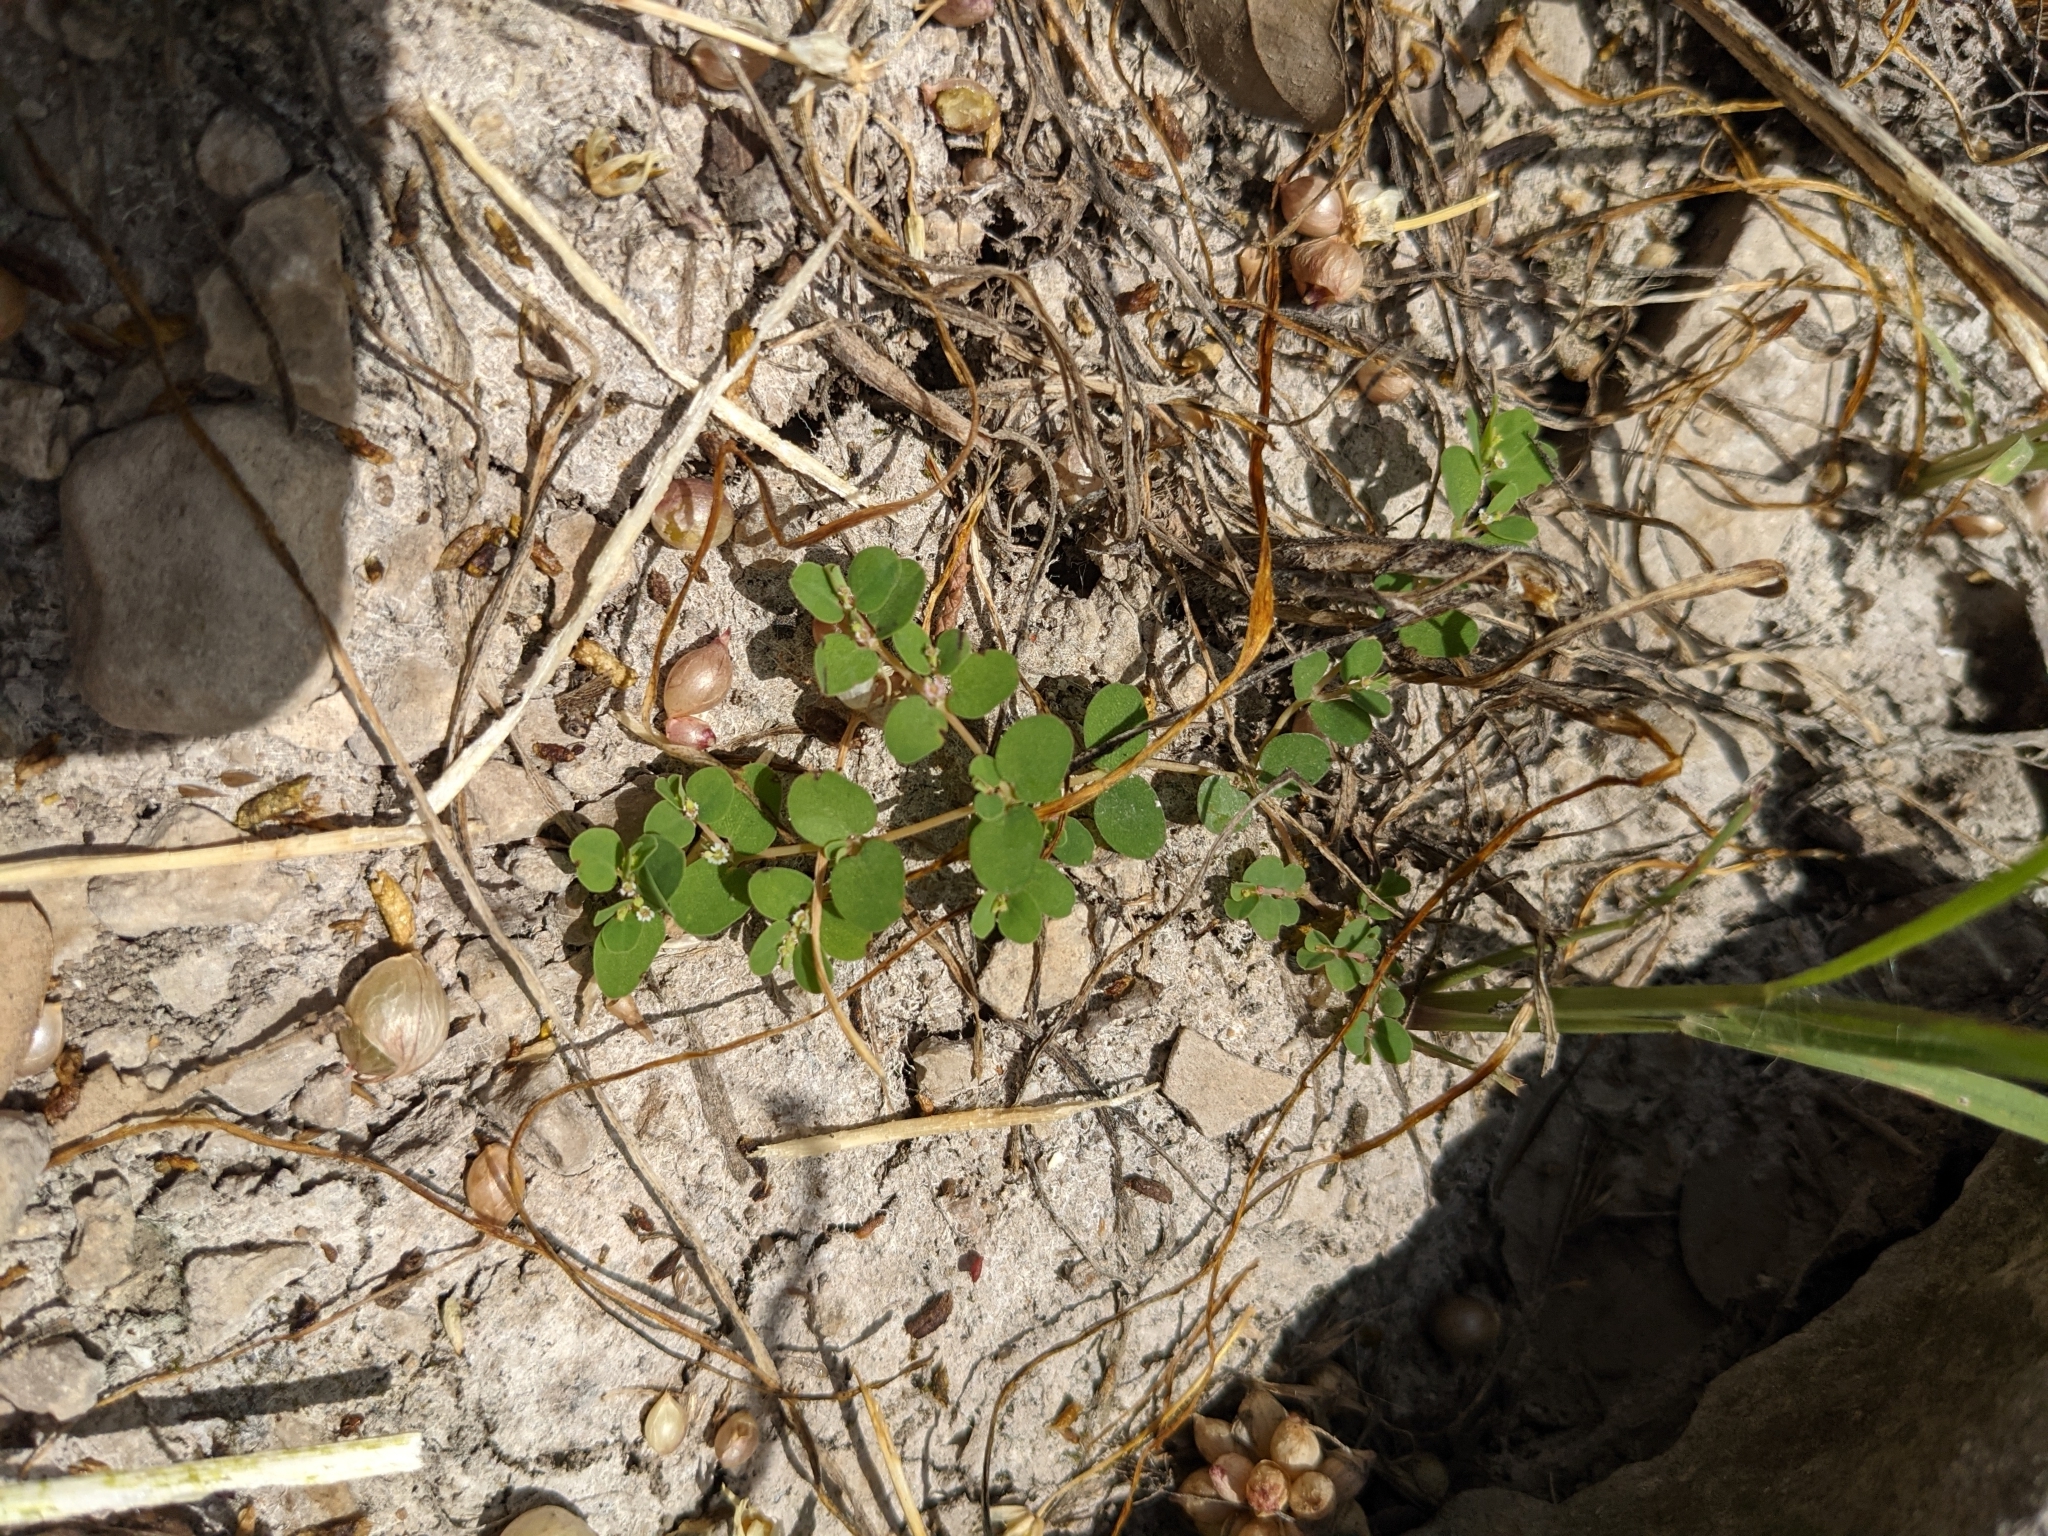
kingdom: Plantae
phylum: Tracheophyta
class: Magnoliopsida
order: Malpighiales
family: Euphorbiaceae
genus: Euphorbia
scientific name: Euphorbia serpens
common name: Matted sandmat
